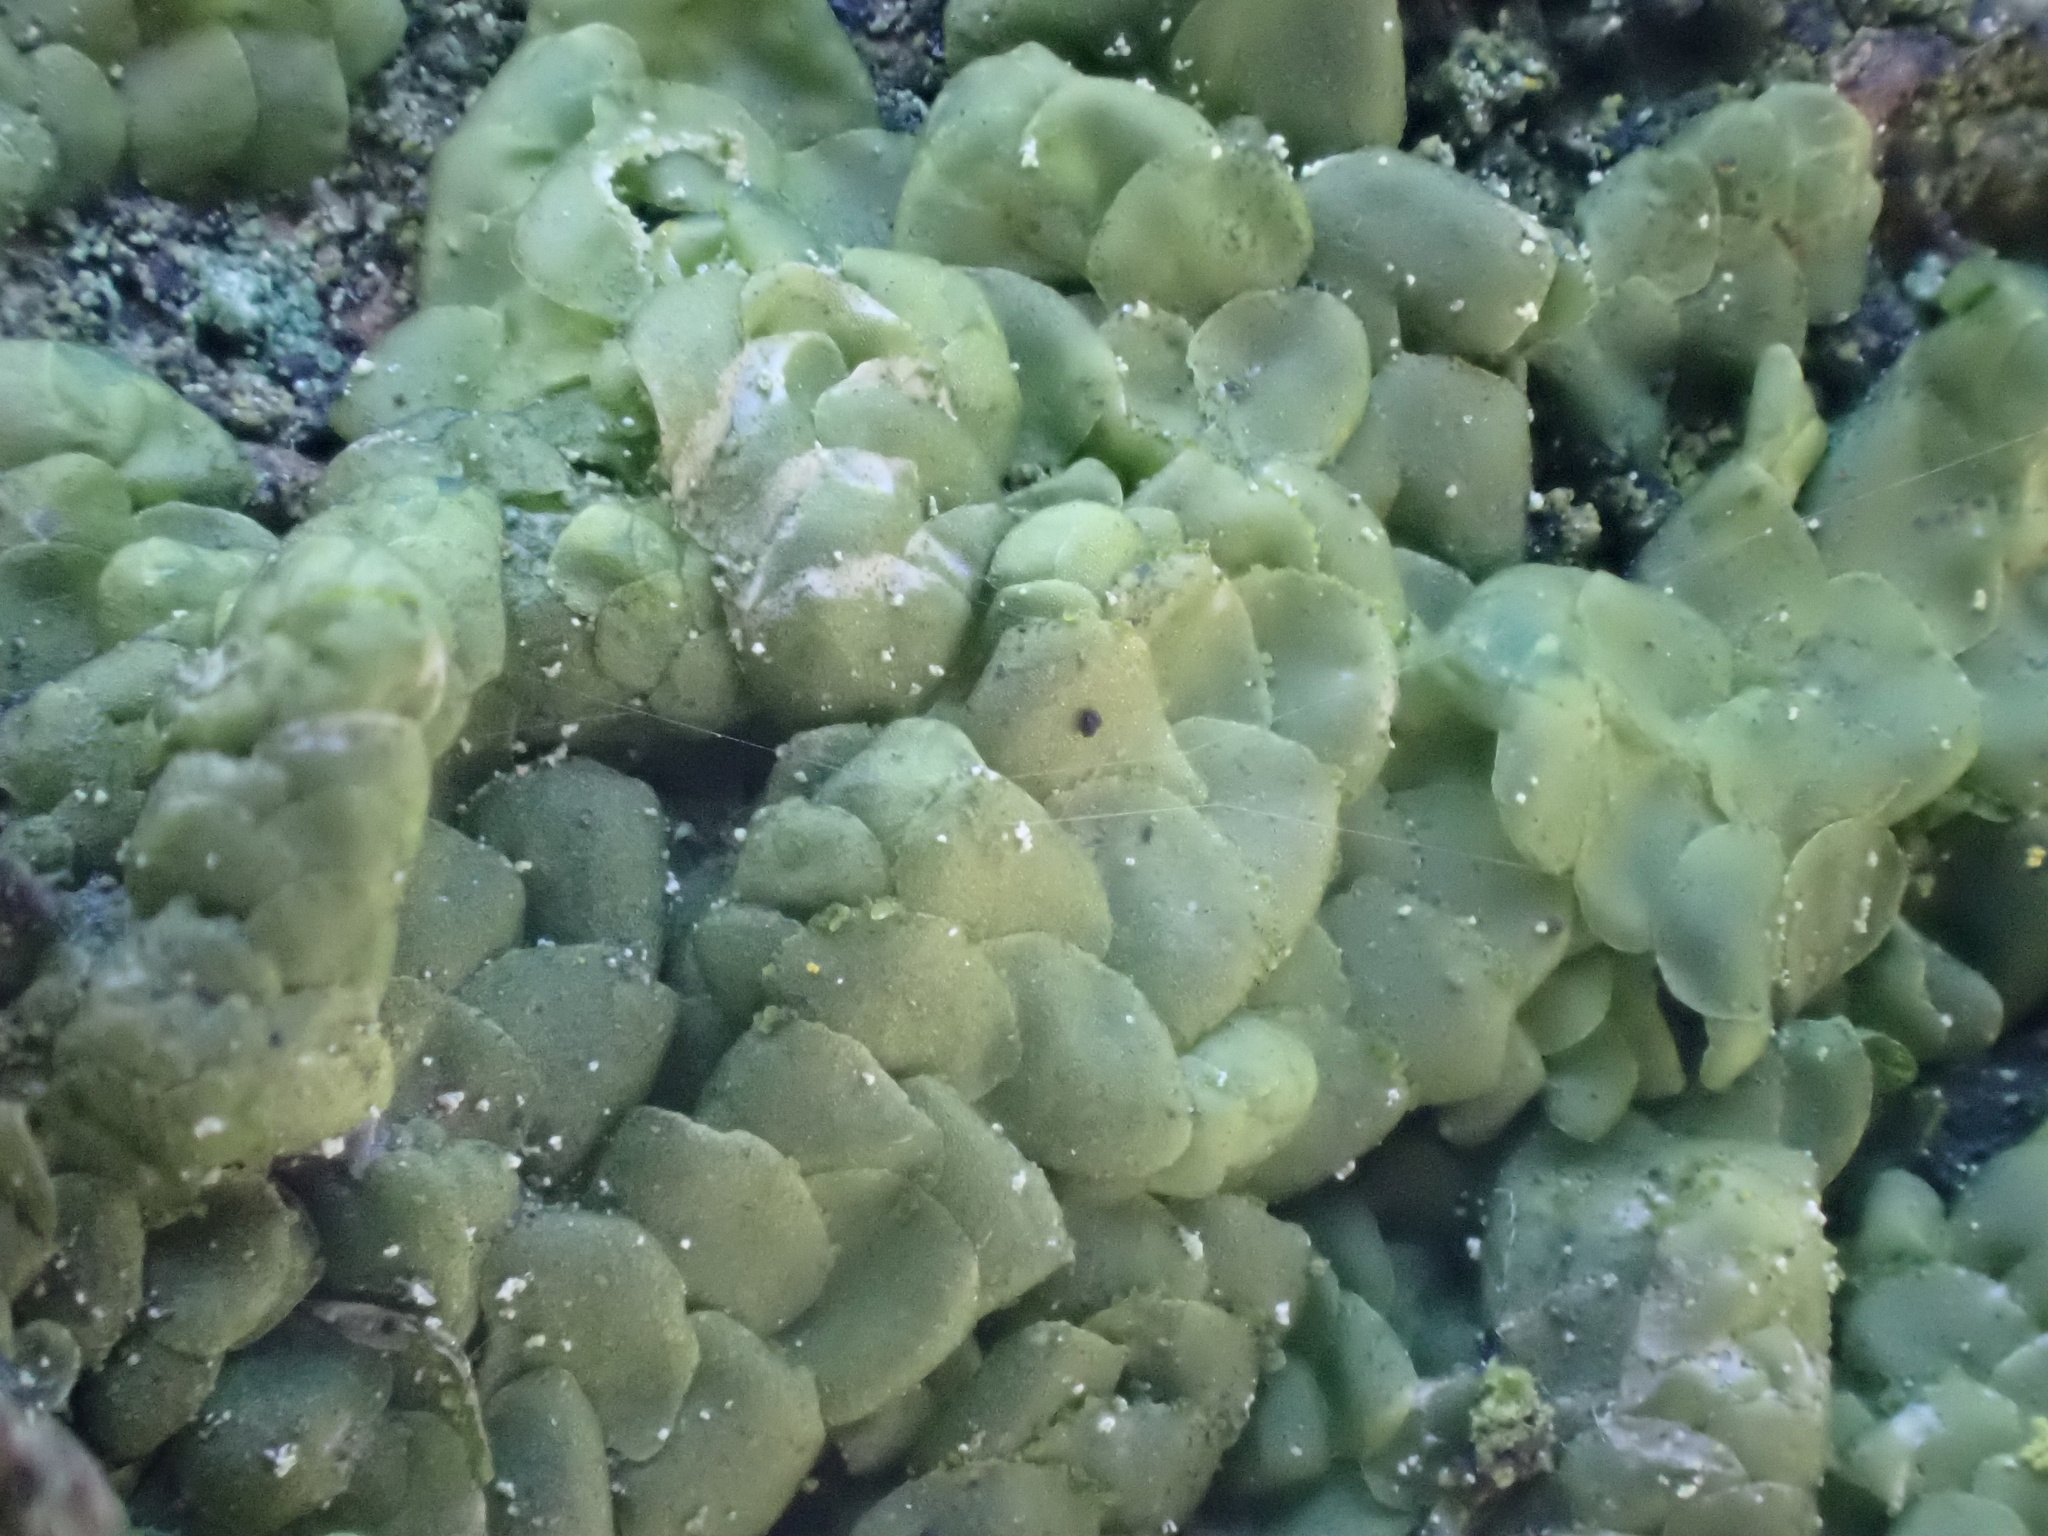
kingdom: Plantae
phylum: Marchantiophyta
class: Jungermanniopsida
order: Porellales
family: Radulaceae
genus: Radula
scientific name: Radula complanata
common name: Flat-leaved scalewort
